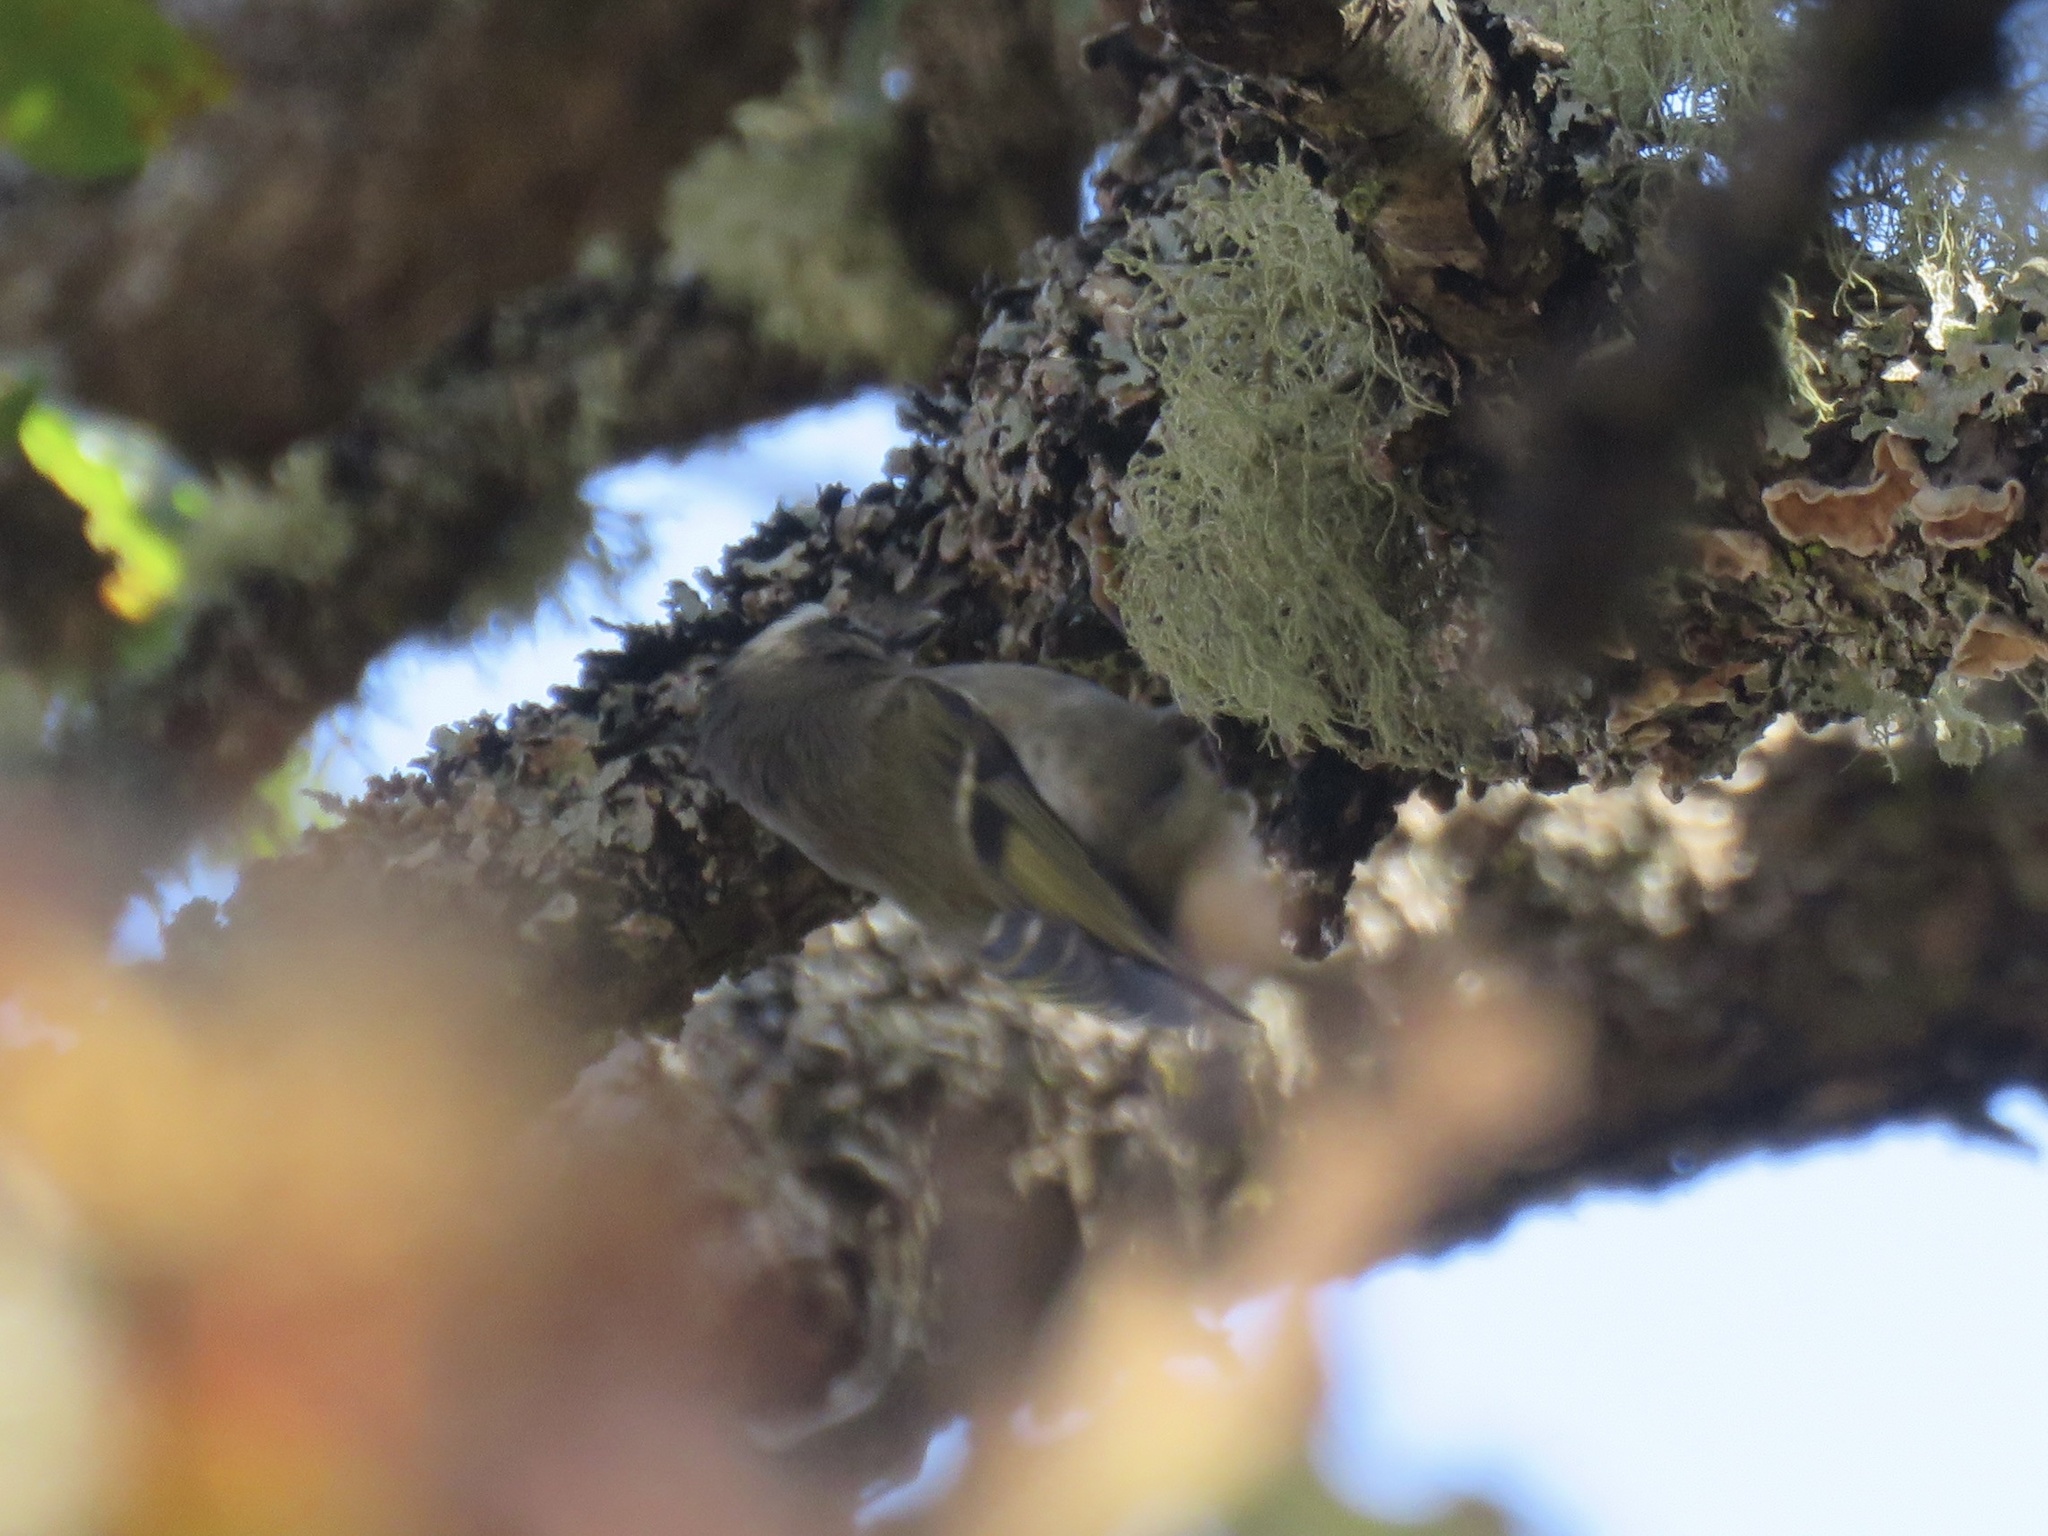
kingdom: Animalia
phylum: Chordata
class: Aves
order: Passeriformes
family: Regulidae
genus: Regulus
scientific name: Regulus satrapa
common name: Golden-crowned kinglet
